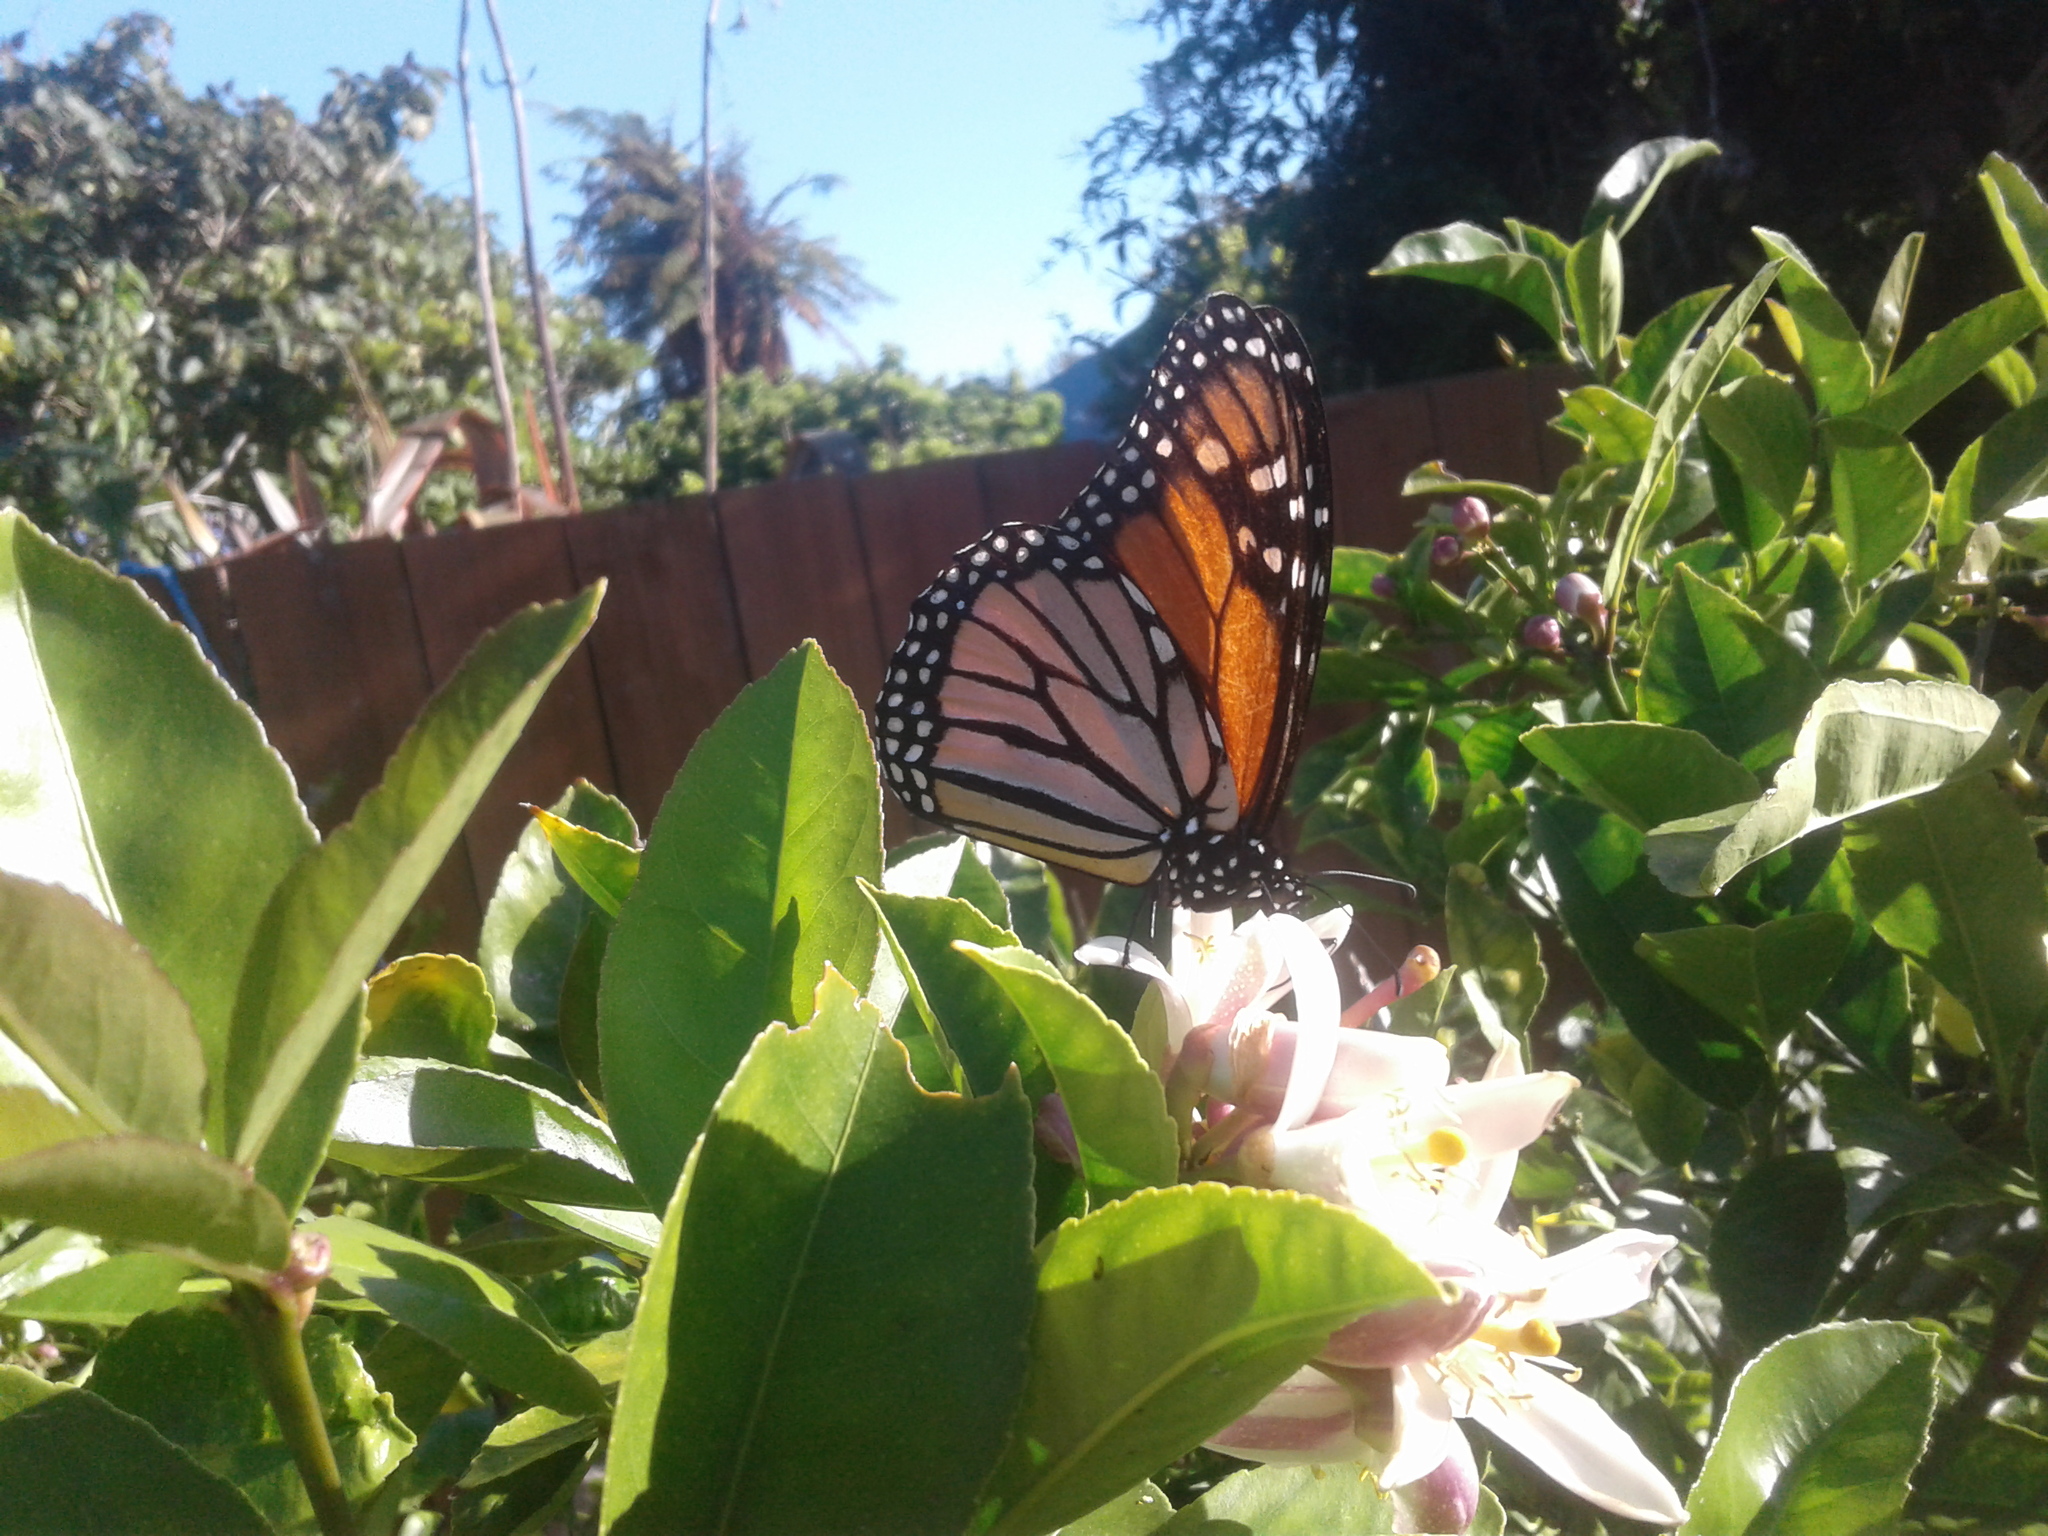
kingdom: Animalia
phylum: Arthropoda
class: Insecta
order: Lepidoptera
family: Nymphalidae
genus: Danaus
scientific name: Danaus plexippus
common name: Monarch
